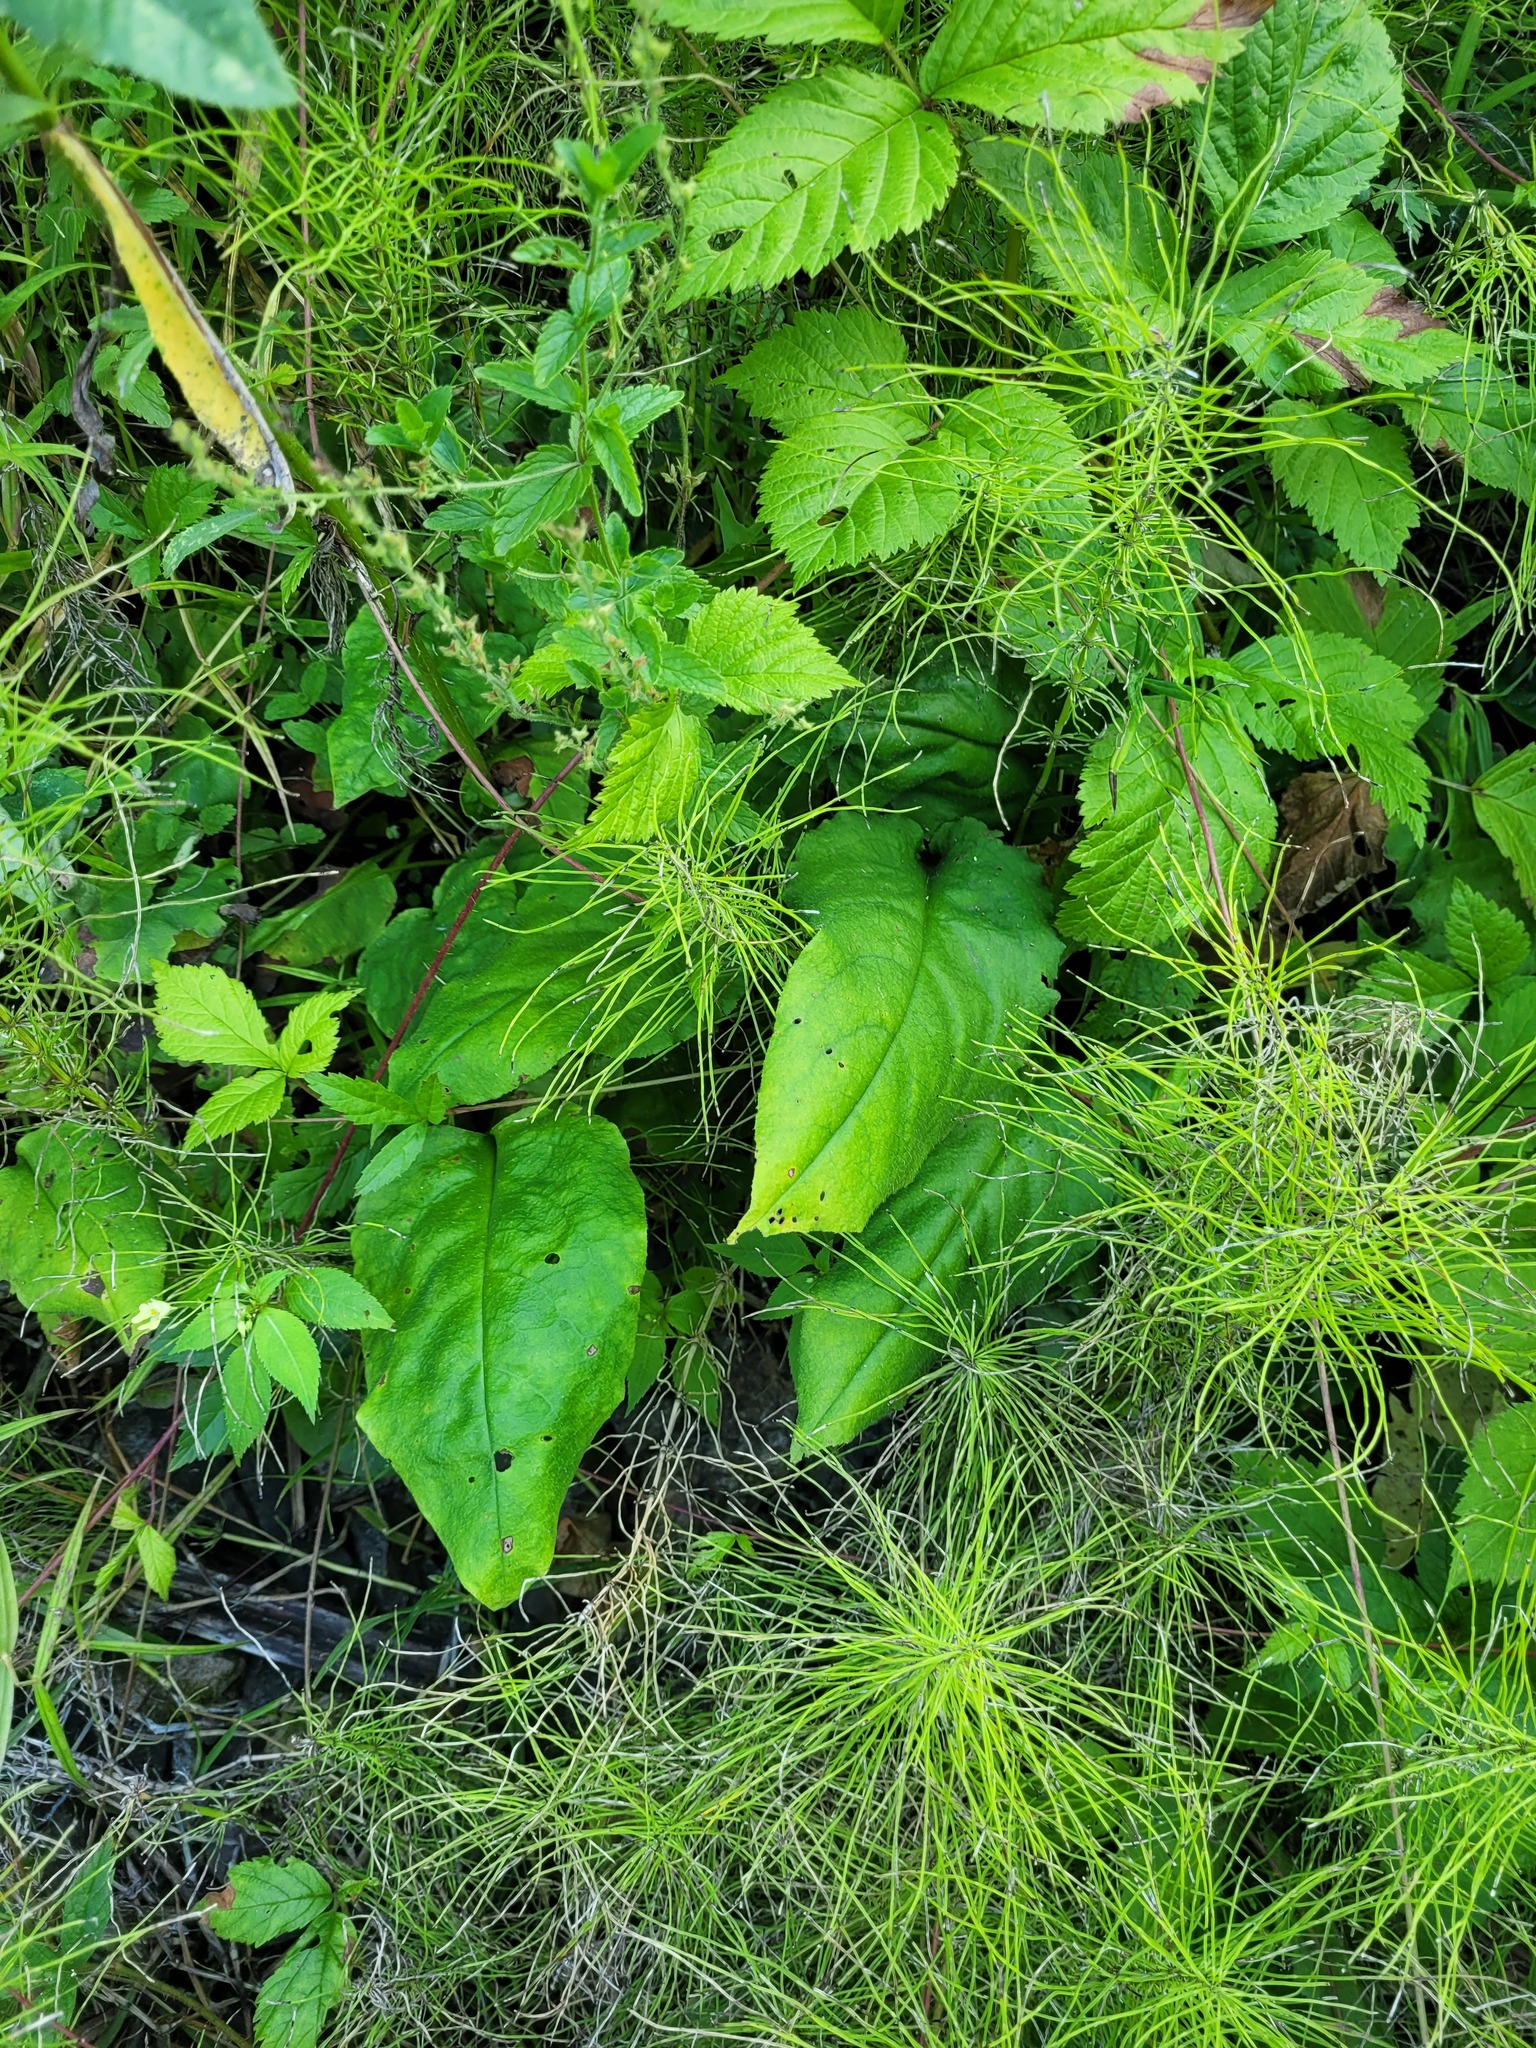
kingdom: Plantae
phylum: Tracheophyta
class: Magnoliopsida
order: Boraginales
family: Boraginaceae
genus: Pulmonaria
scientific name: Pulmonaria obscura
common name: Suffolk lungwort
